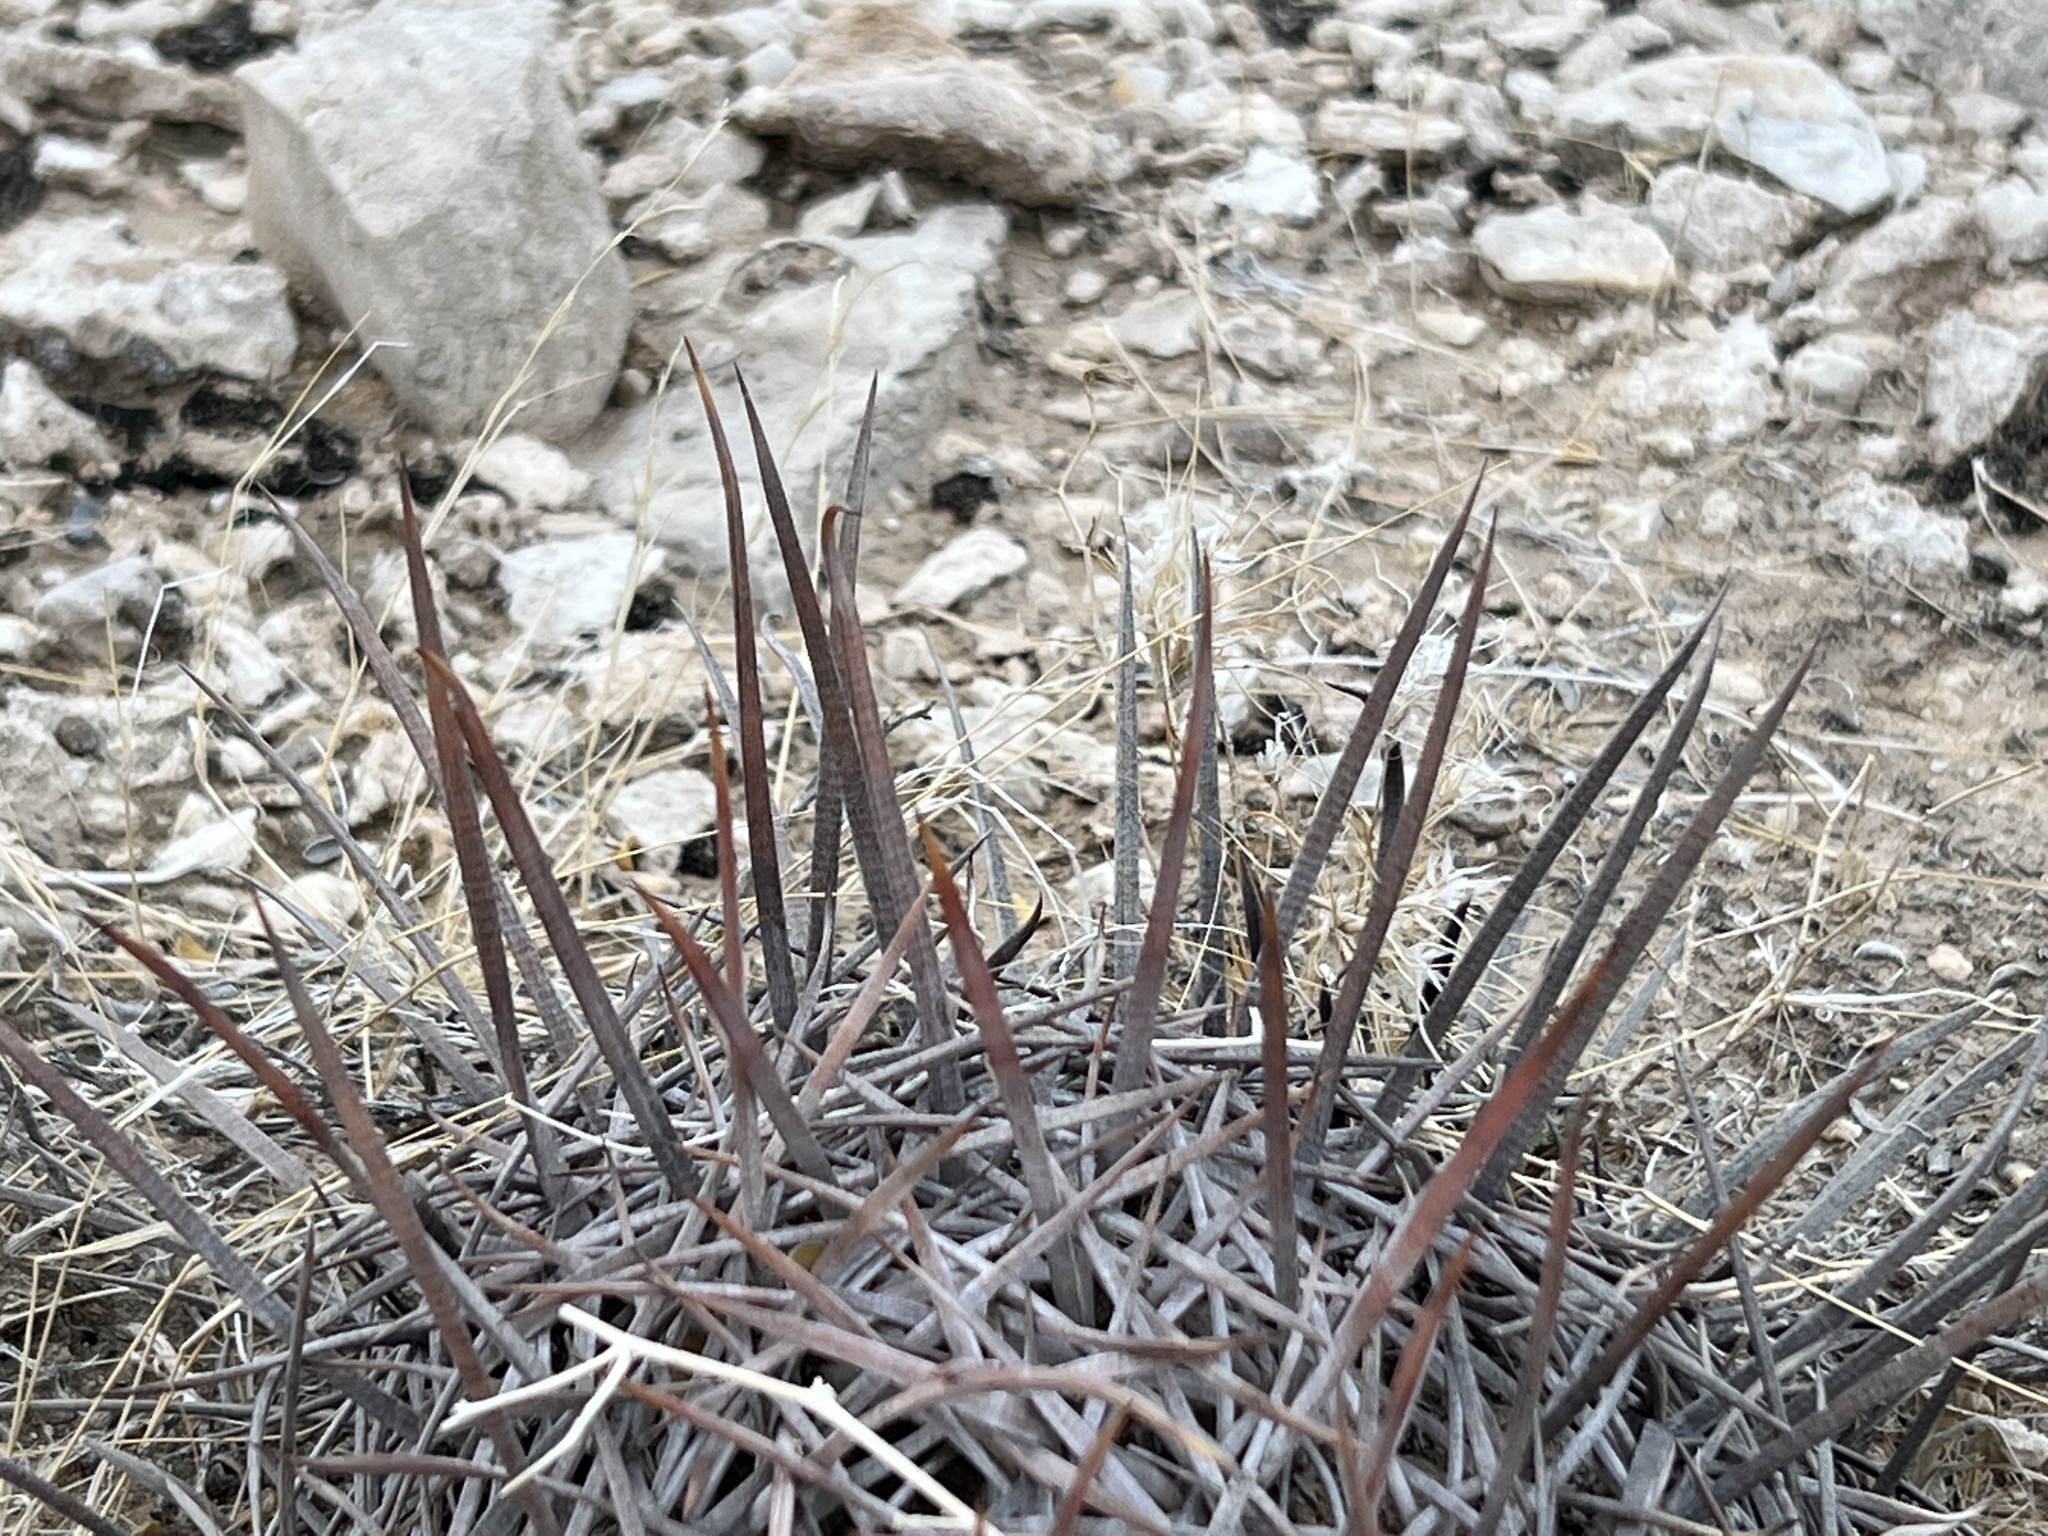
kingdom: Plantae
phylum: Tracheophyta
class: Magnoliopsida
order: Caryophyllales
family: Cactaceae
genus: Echinocactus
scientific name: Echinocactus polycephalus
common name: Cottontop cactus
